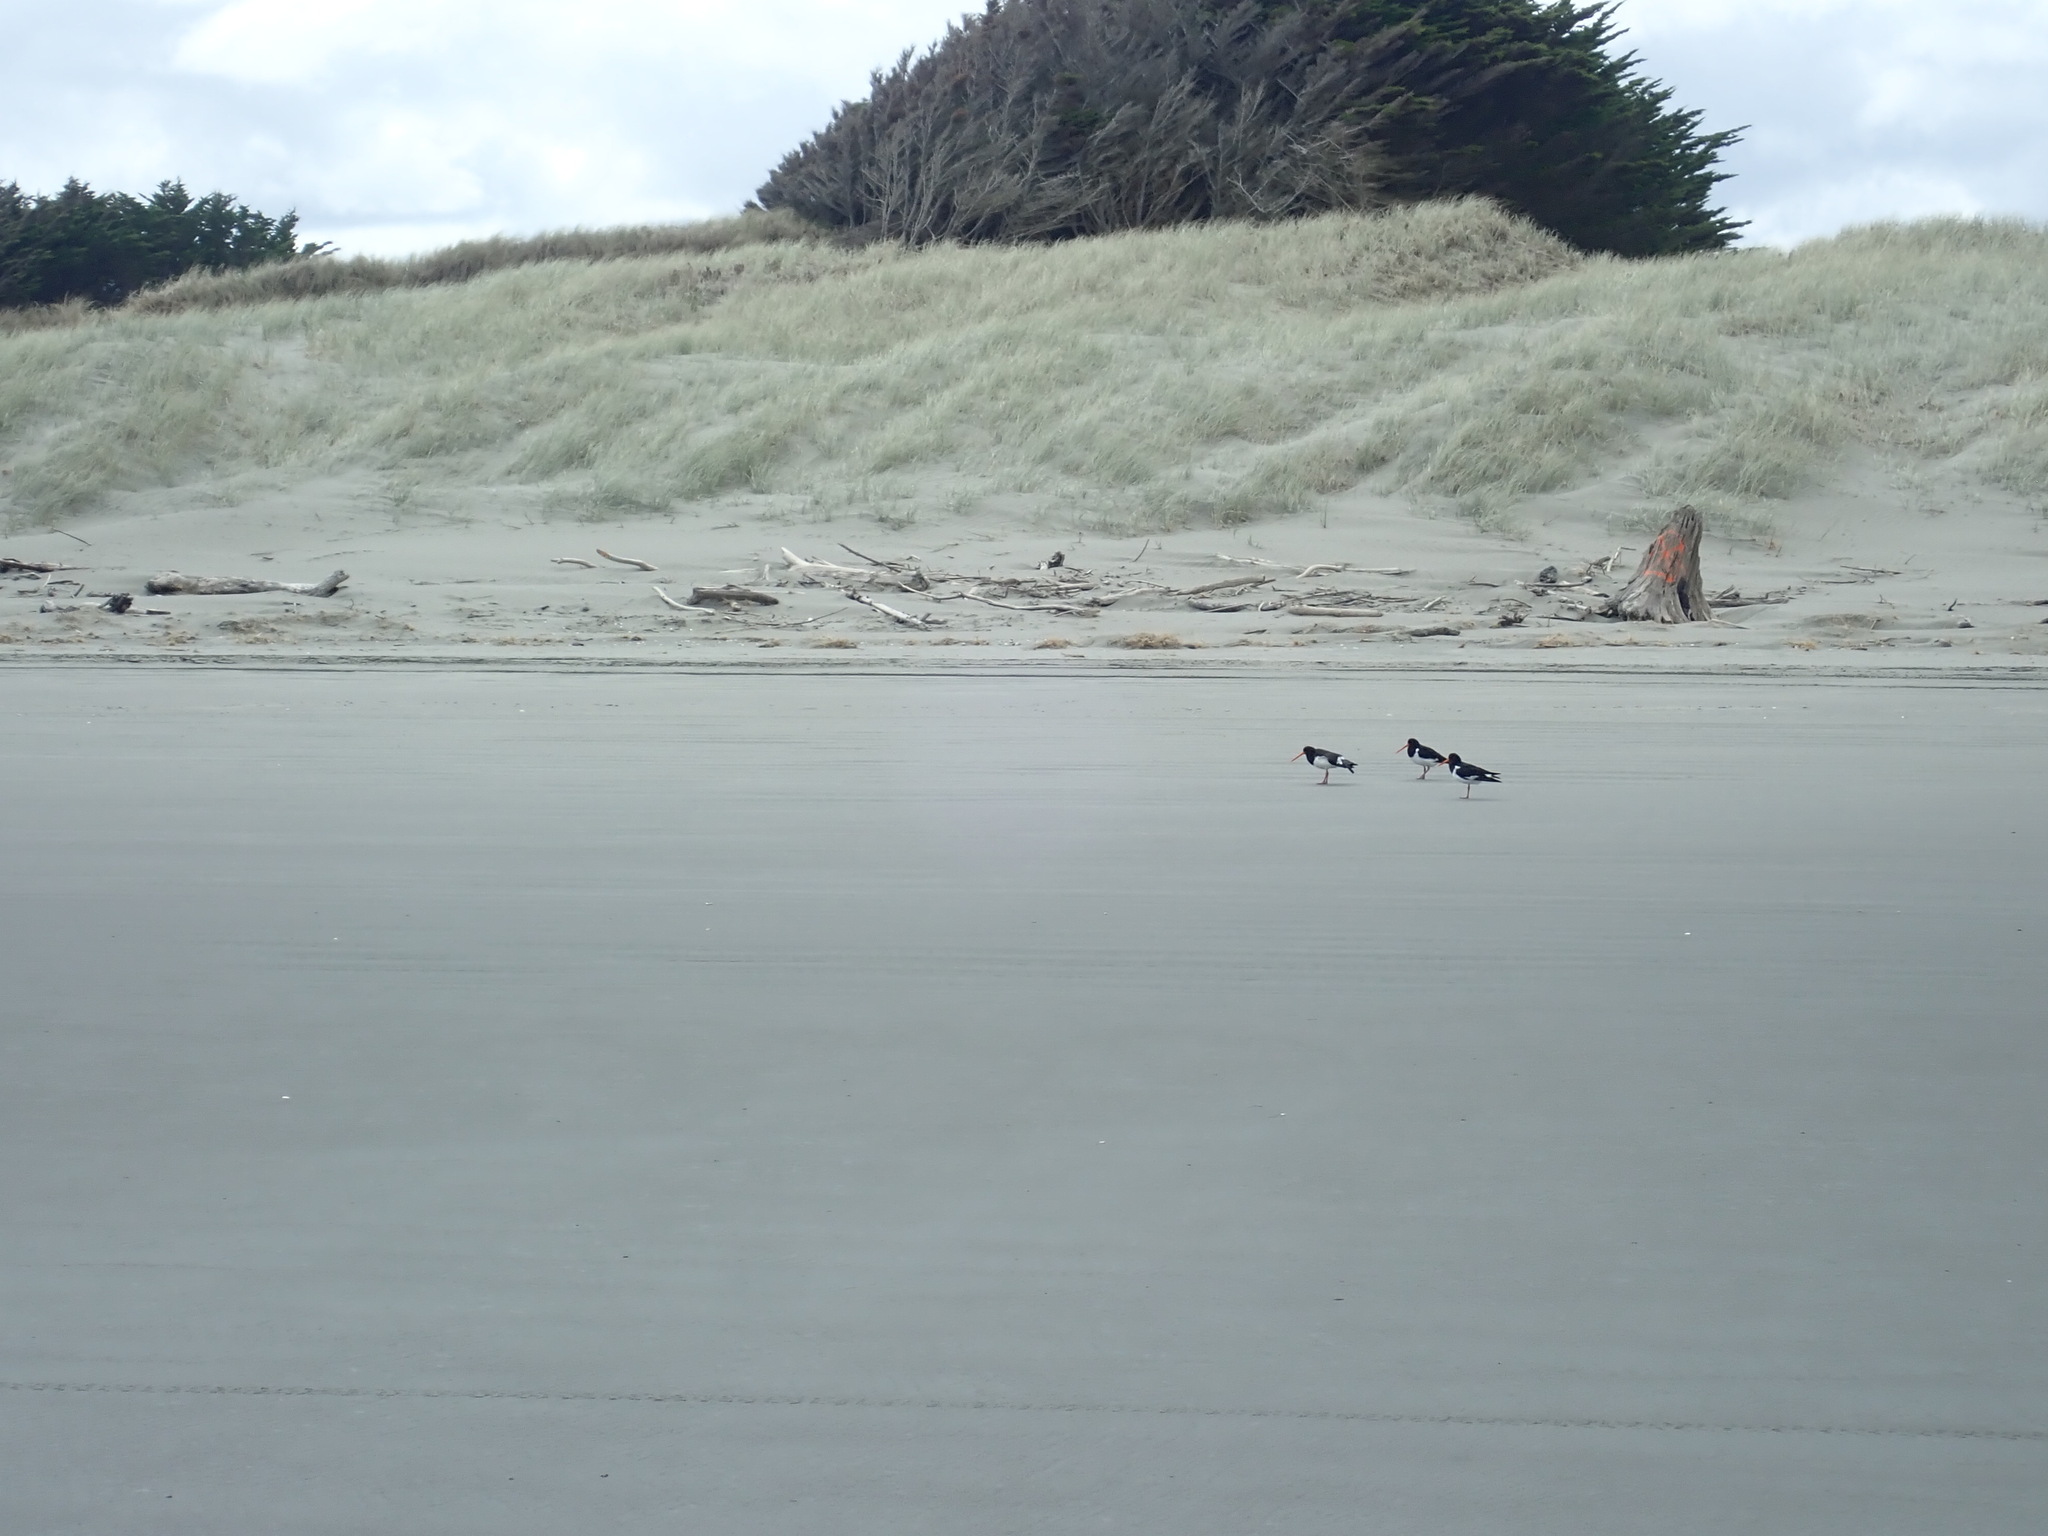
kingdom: Animalia
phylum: Chordata
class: Aves
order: Charadriiformes
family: Haematopodidae
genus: Haematopus
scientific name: Haematopus finschi
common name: South island oystercatcher
